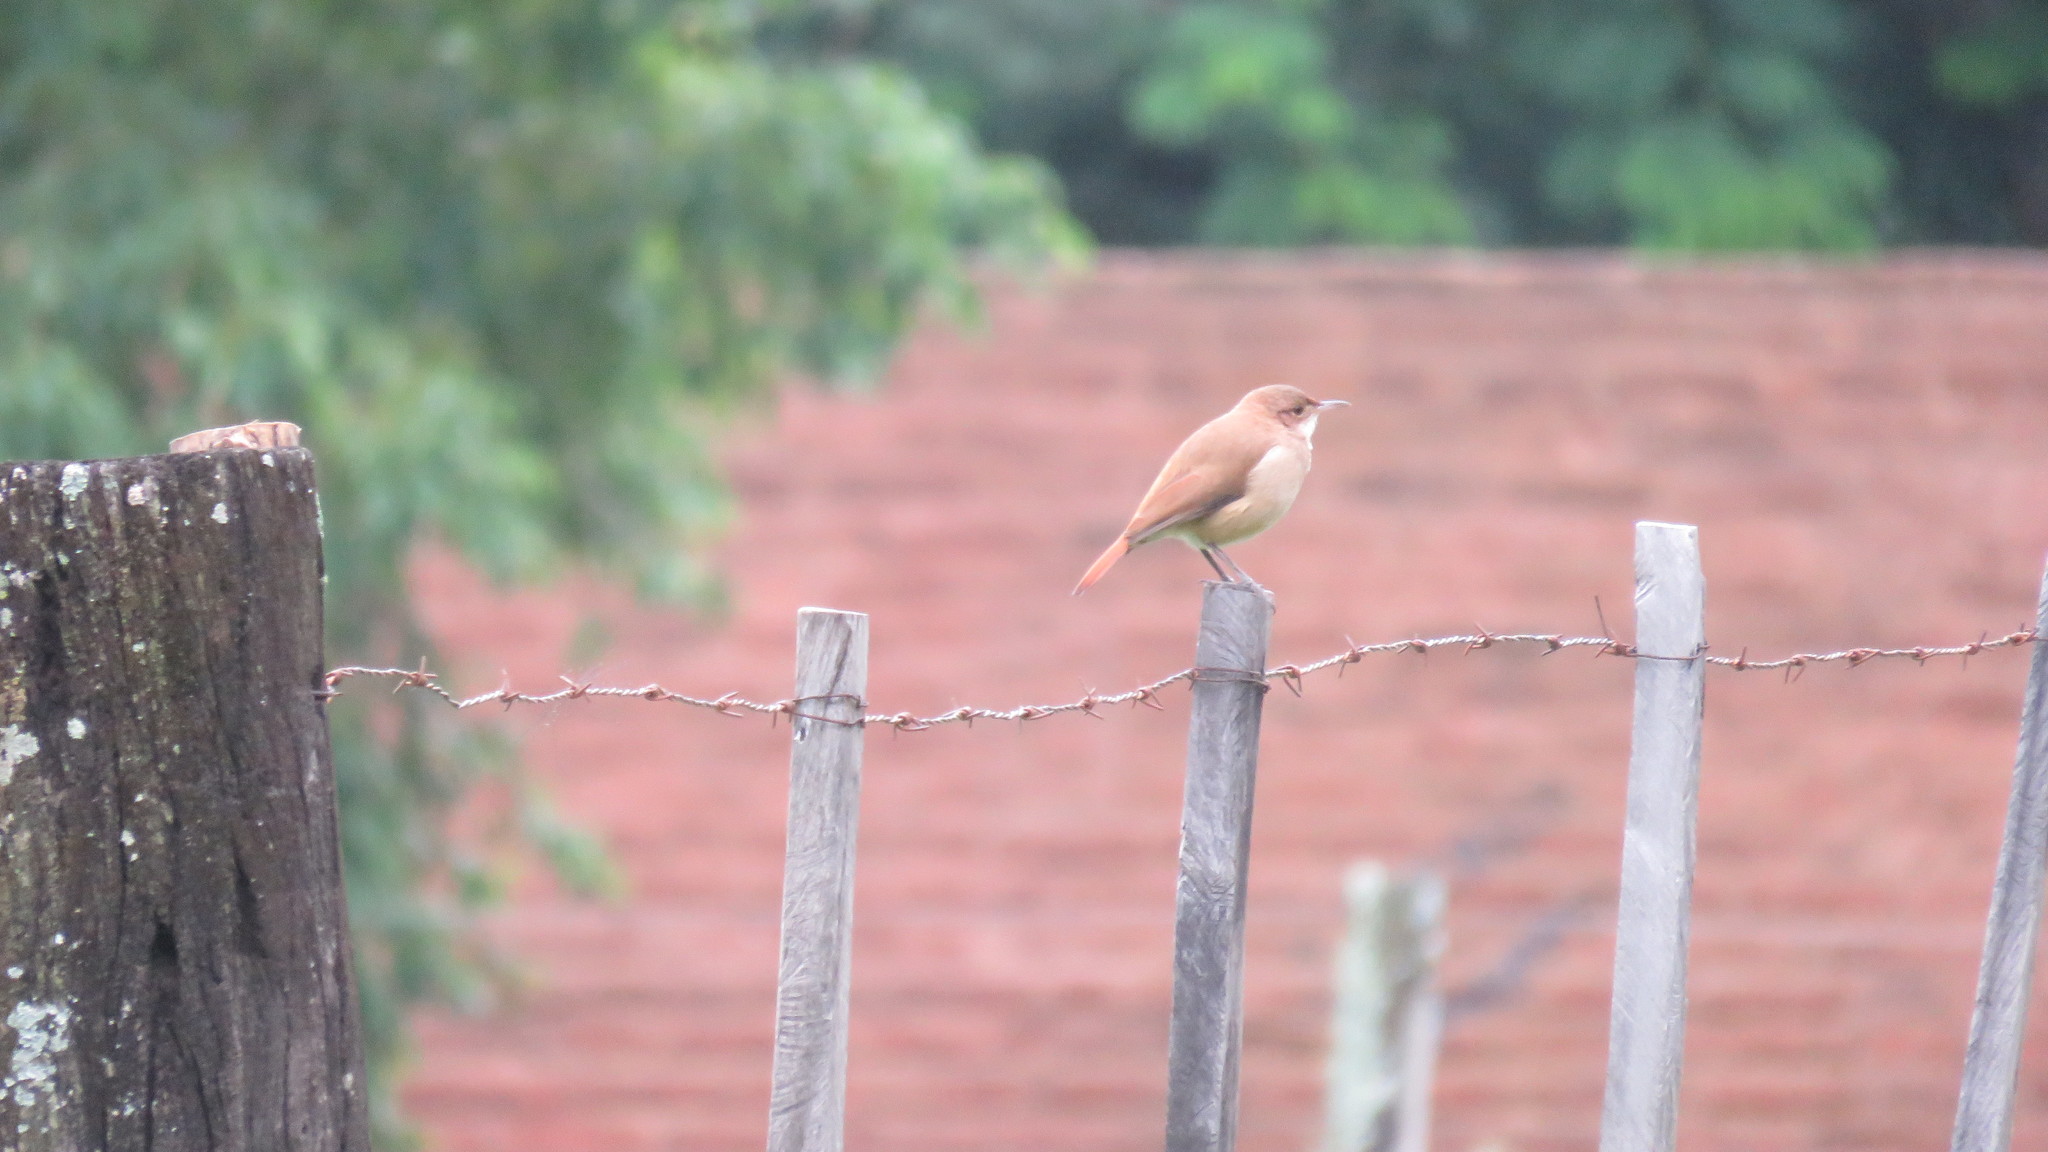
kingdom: Animalia
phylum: Chordata
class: Aves
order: Passeriformes
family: Furnariidae
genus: Furnarius
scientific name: Furnarius rufus
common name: Rufous hornero
